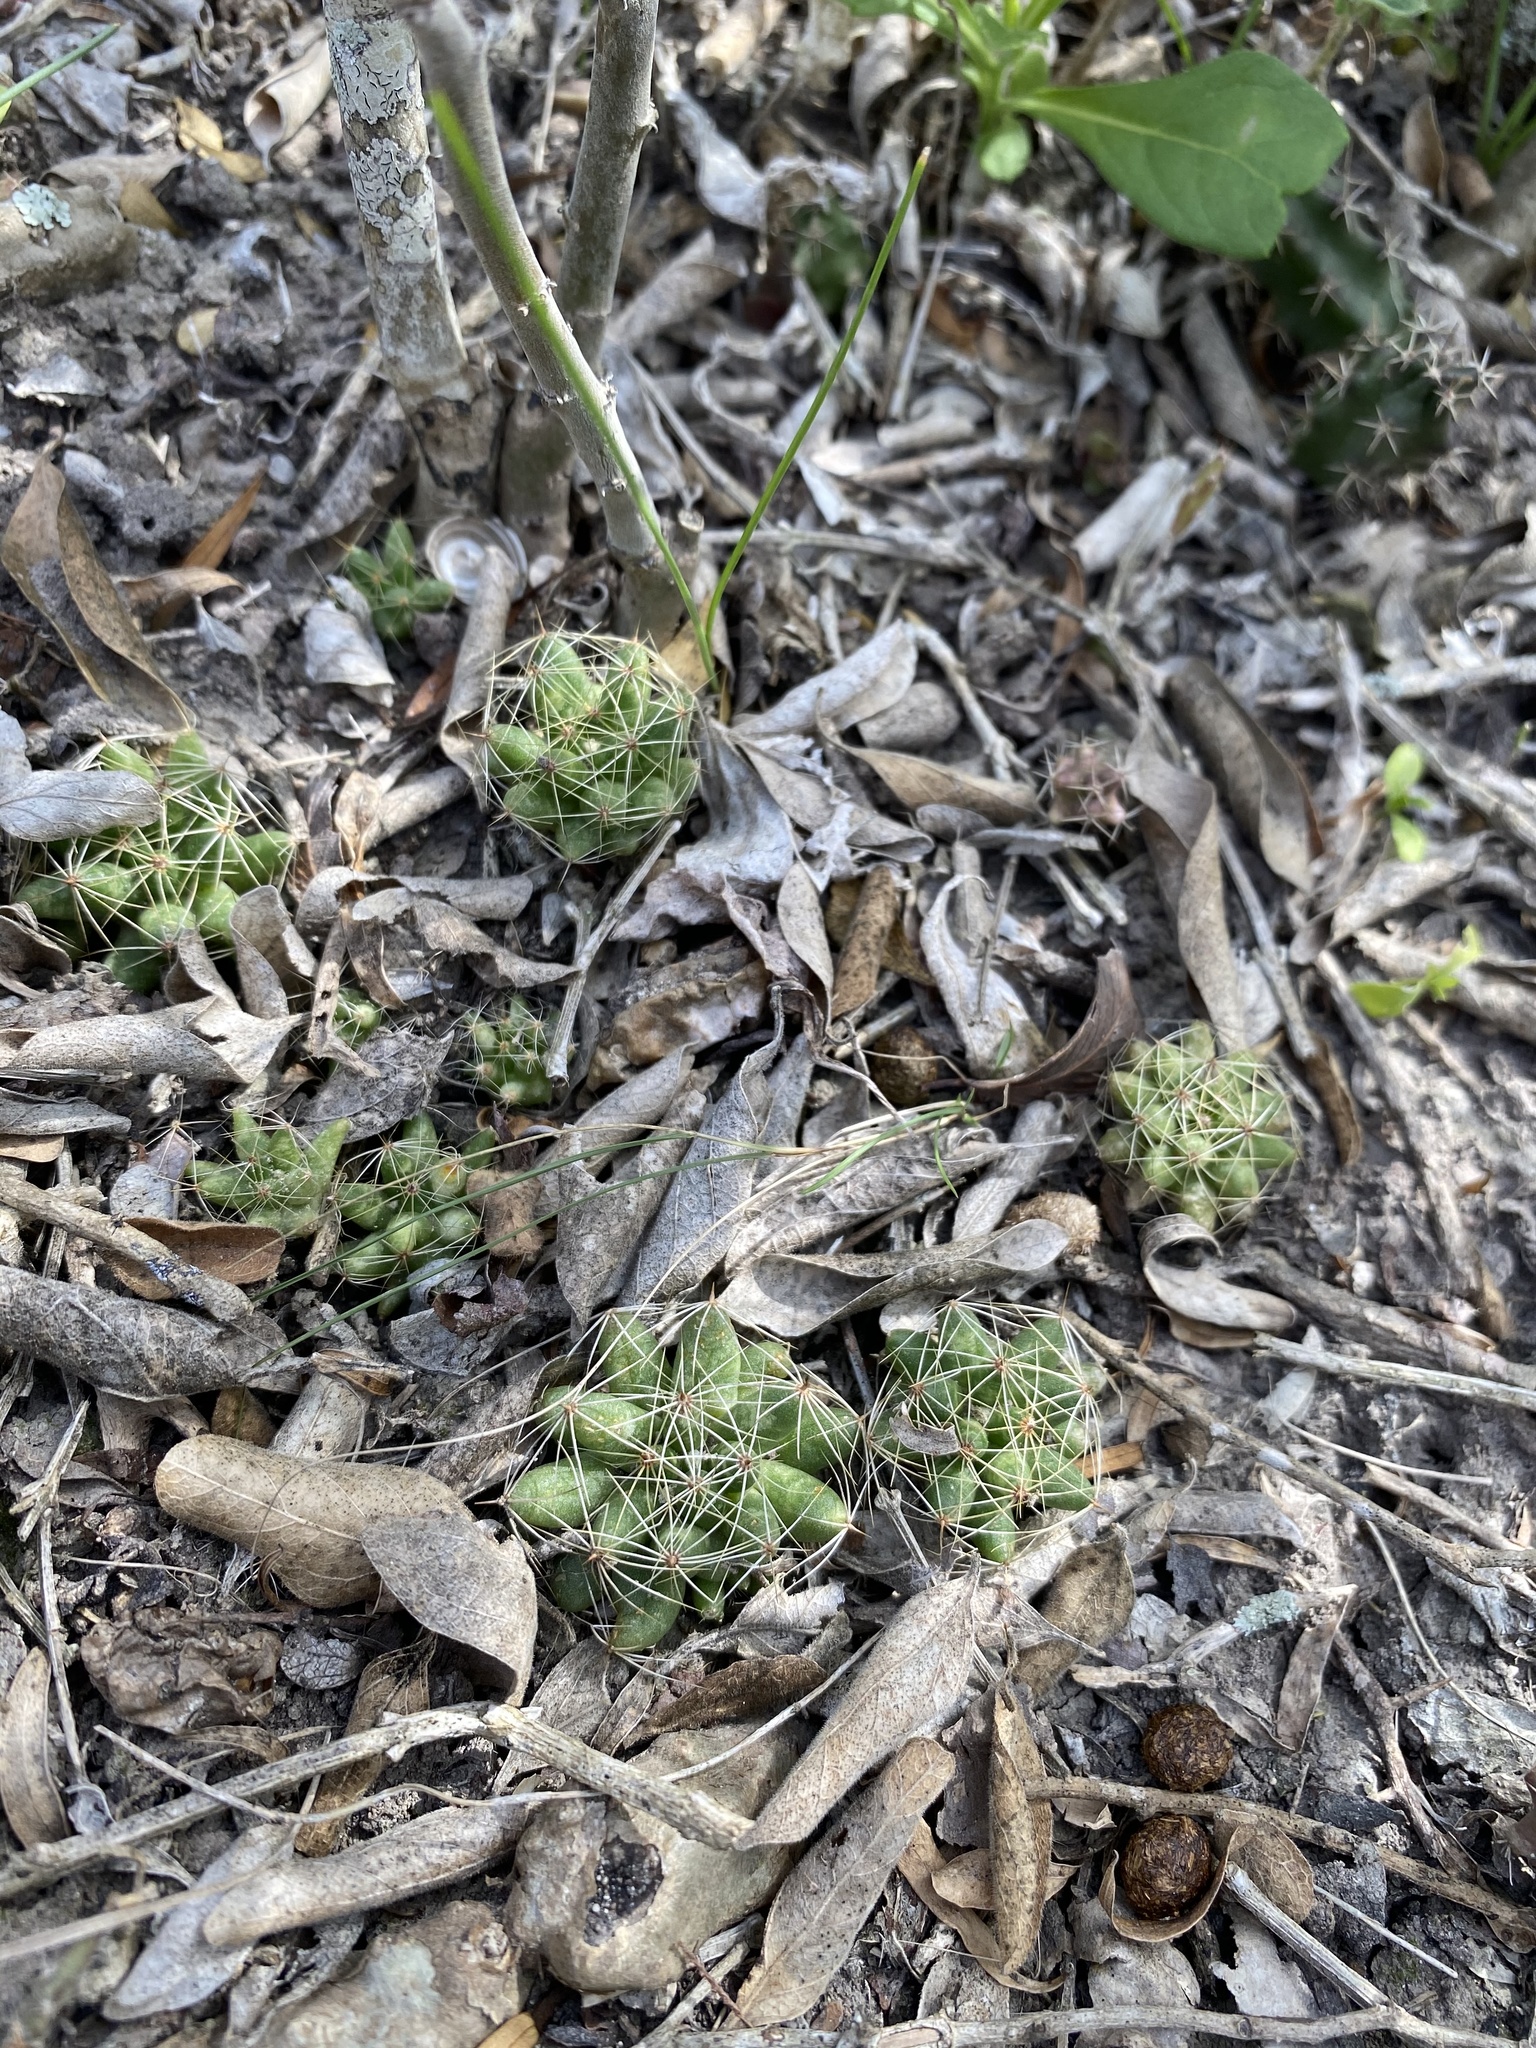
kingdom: Plantae
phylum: Tracheophyta
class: Magnoliopsida
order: Caryophyllales
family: Cactaceae
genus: Mammillaria
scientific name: Mammillaria sphaerica
